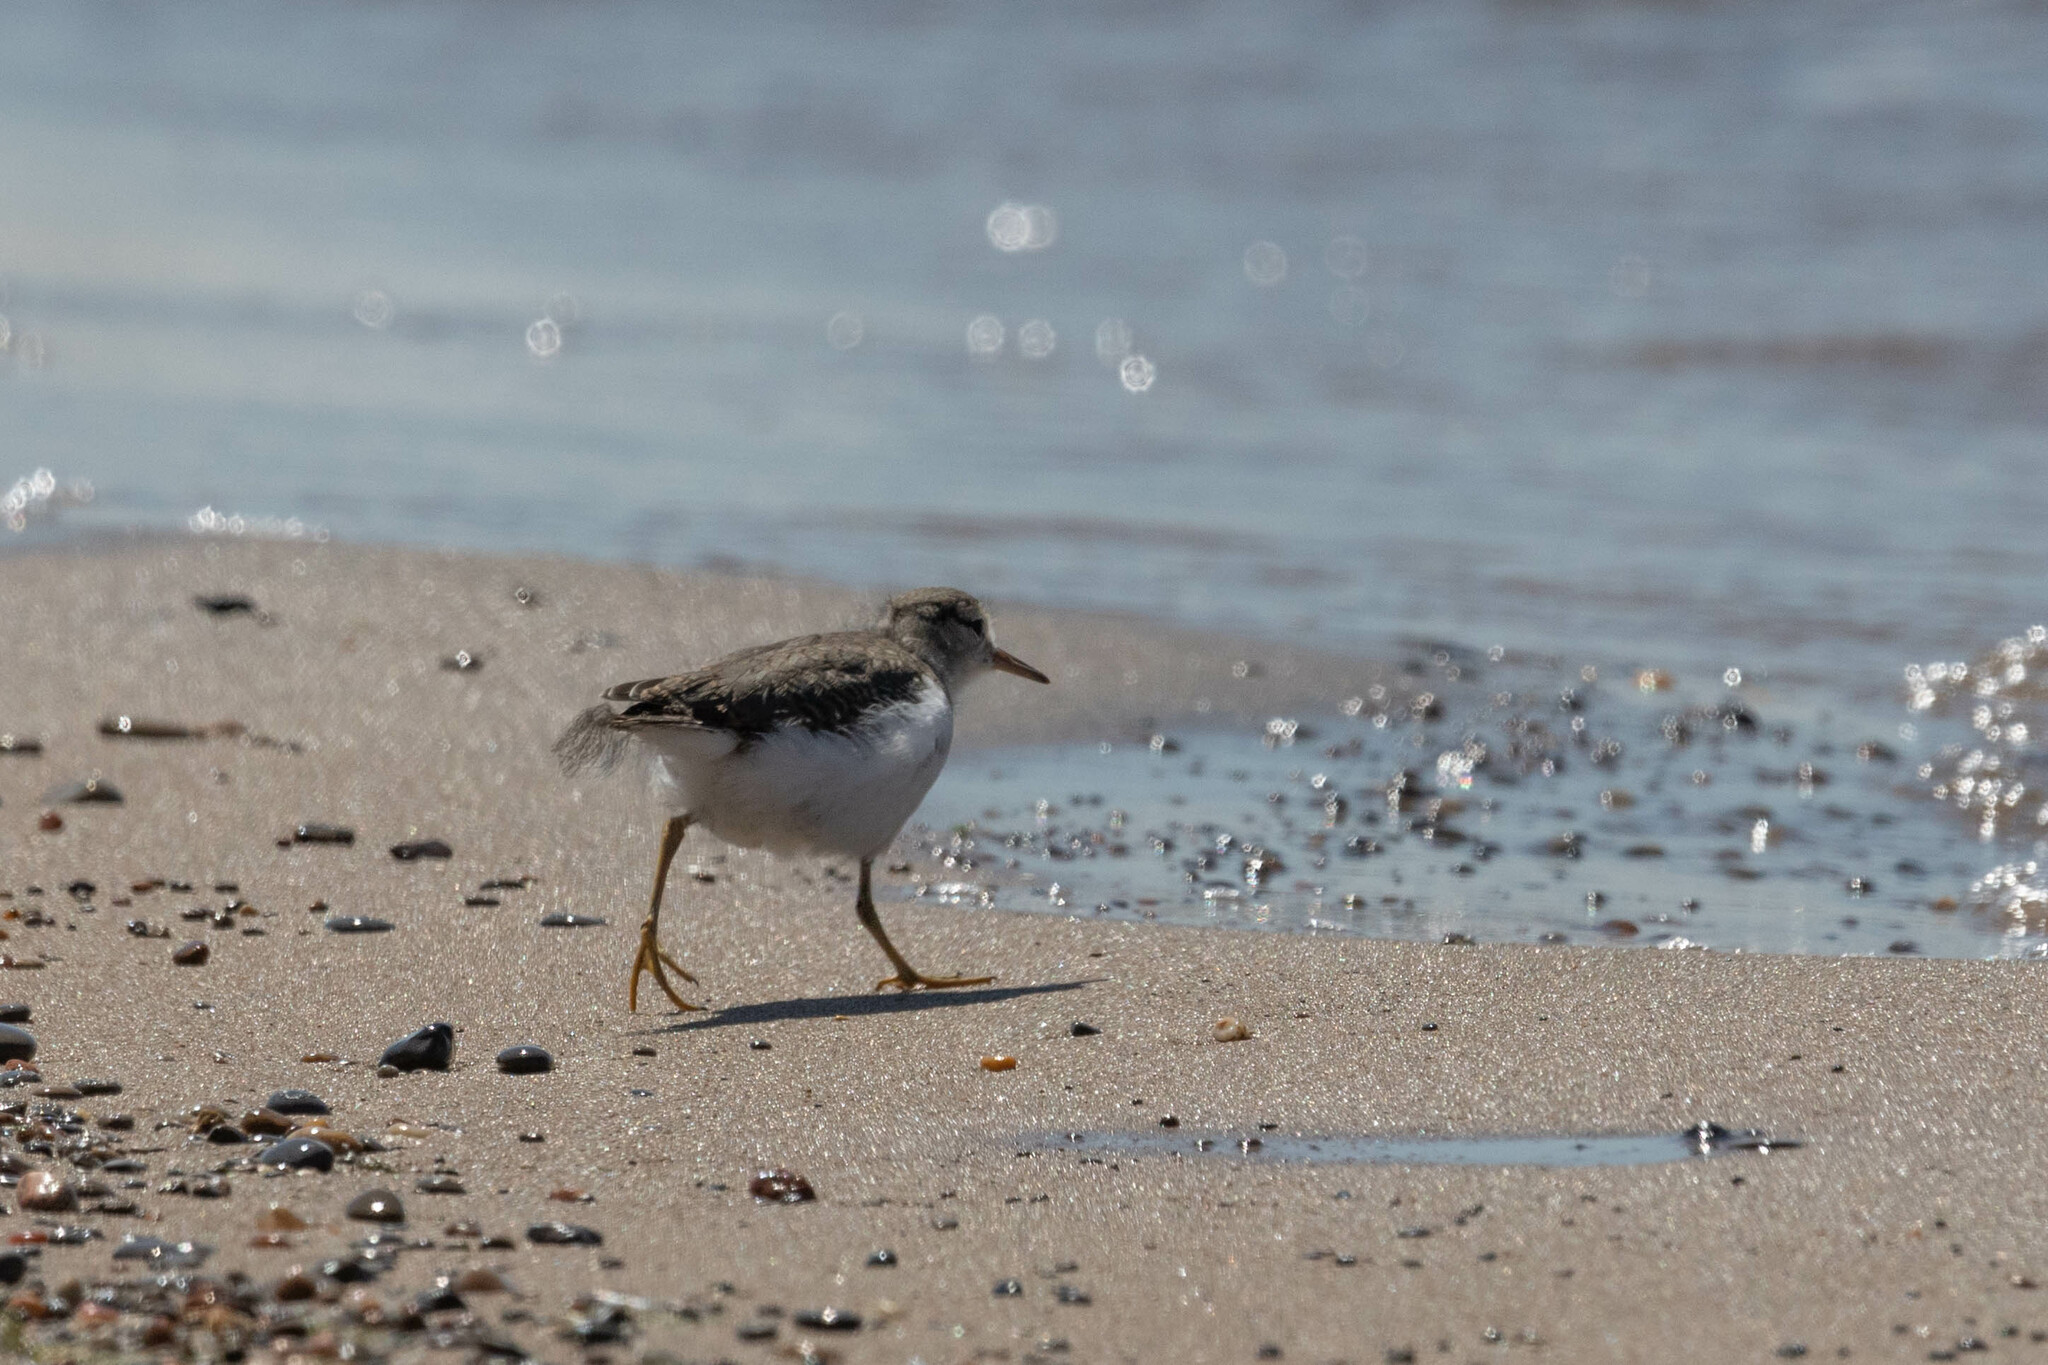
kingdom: Animalia
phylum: Chordata
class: Aves
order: Charadriiformes
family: Scolopacidae
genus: Actitis
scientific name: Actitis macularius
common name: Spotted sandpiper
